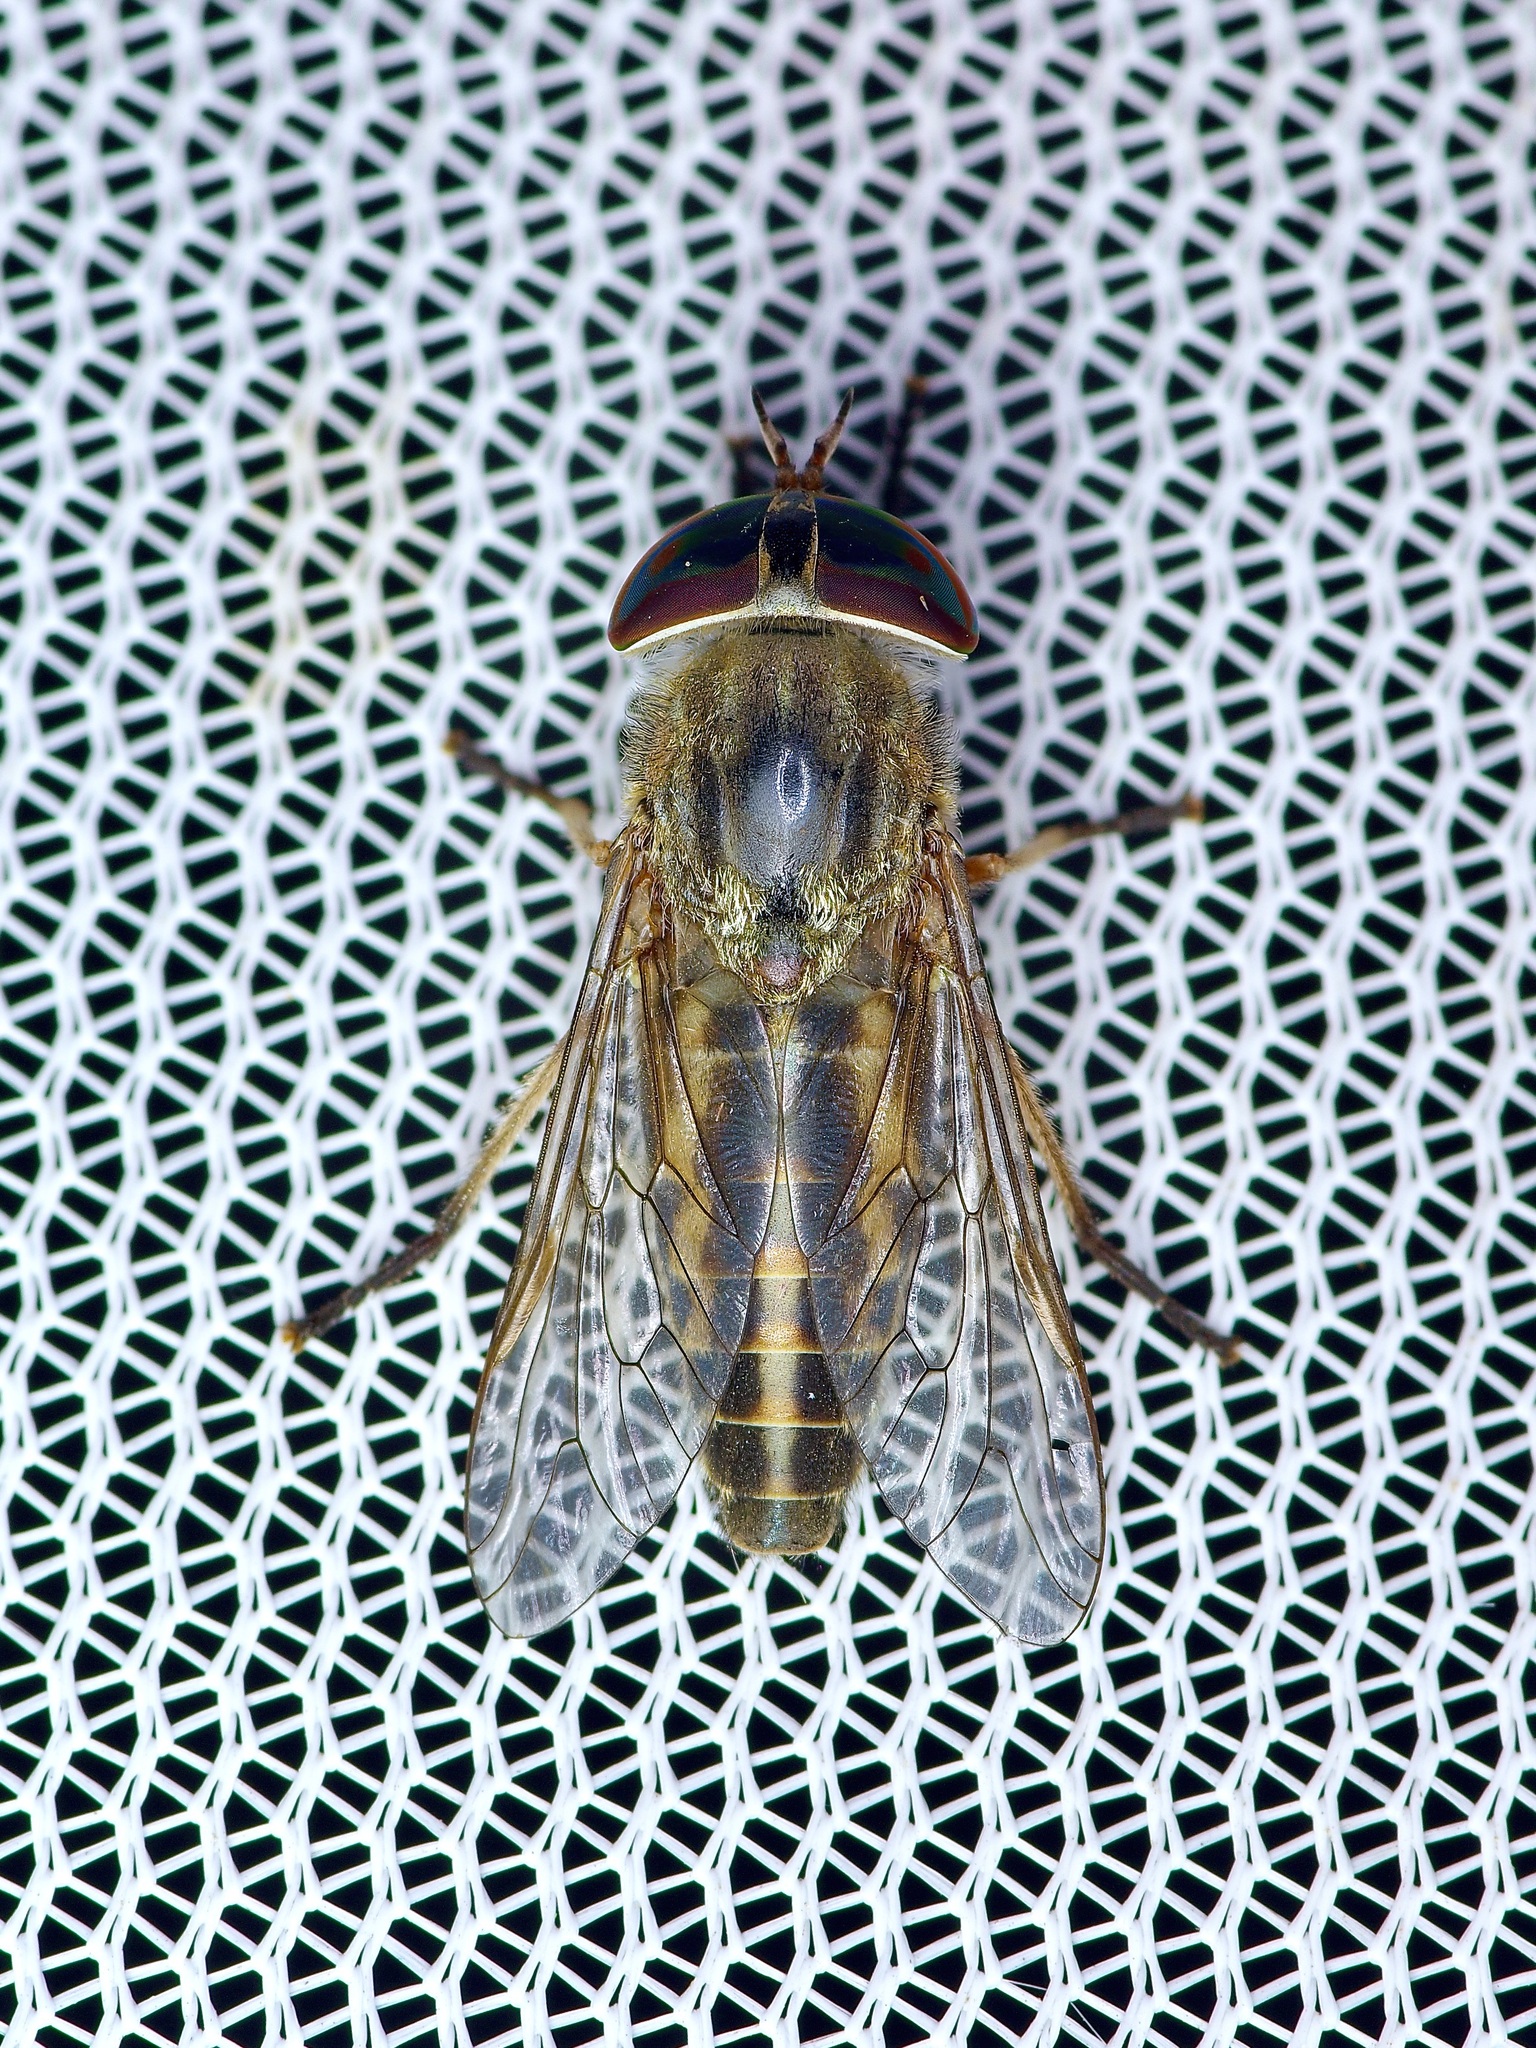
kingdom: Animalia
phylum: Arthropoda
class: Insecta
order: Diptera
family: Tabanidae
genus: Tabanus
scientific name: Tabanus lineola
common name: Striped horse fly
